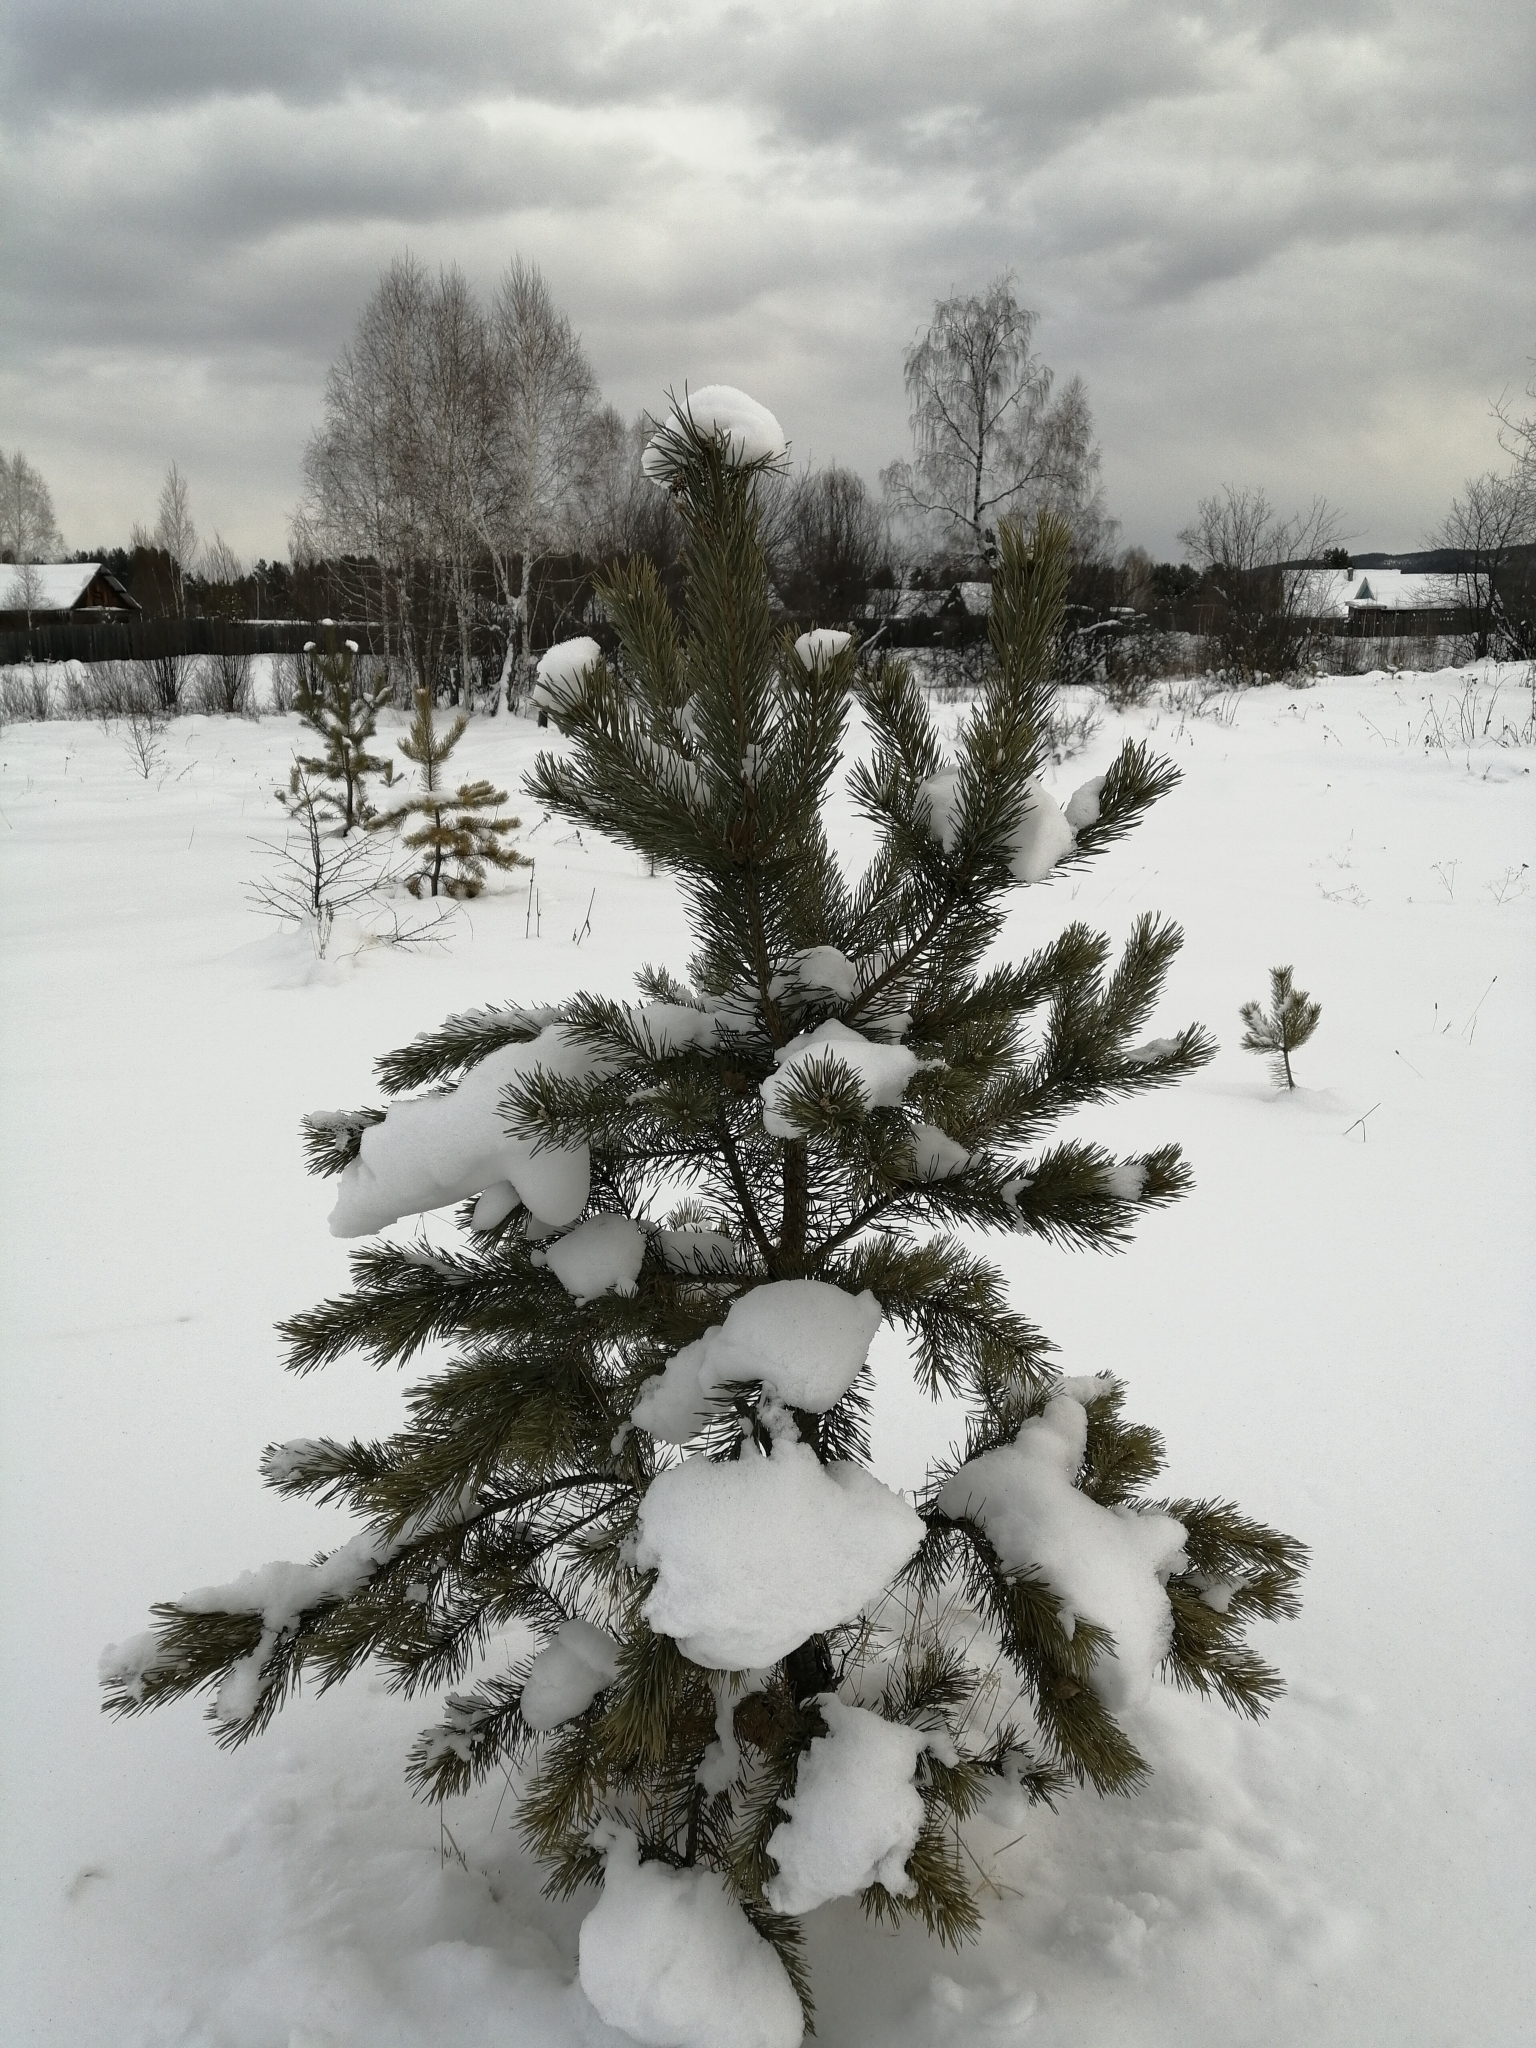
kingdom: Plantae
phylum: Tracheophyta
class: Pinopsida
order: Pinales
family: Pinaceae
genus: Pinus
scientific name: Pinus sylvestris
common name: Scots pine
